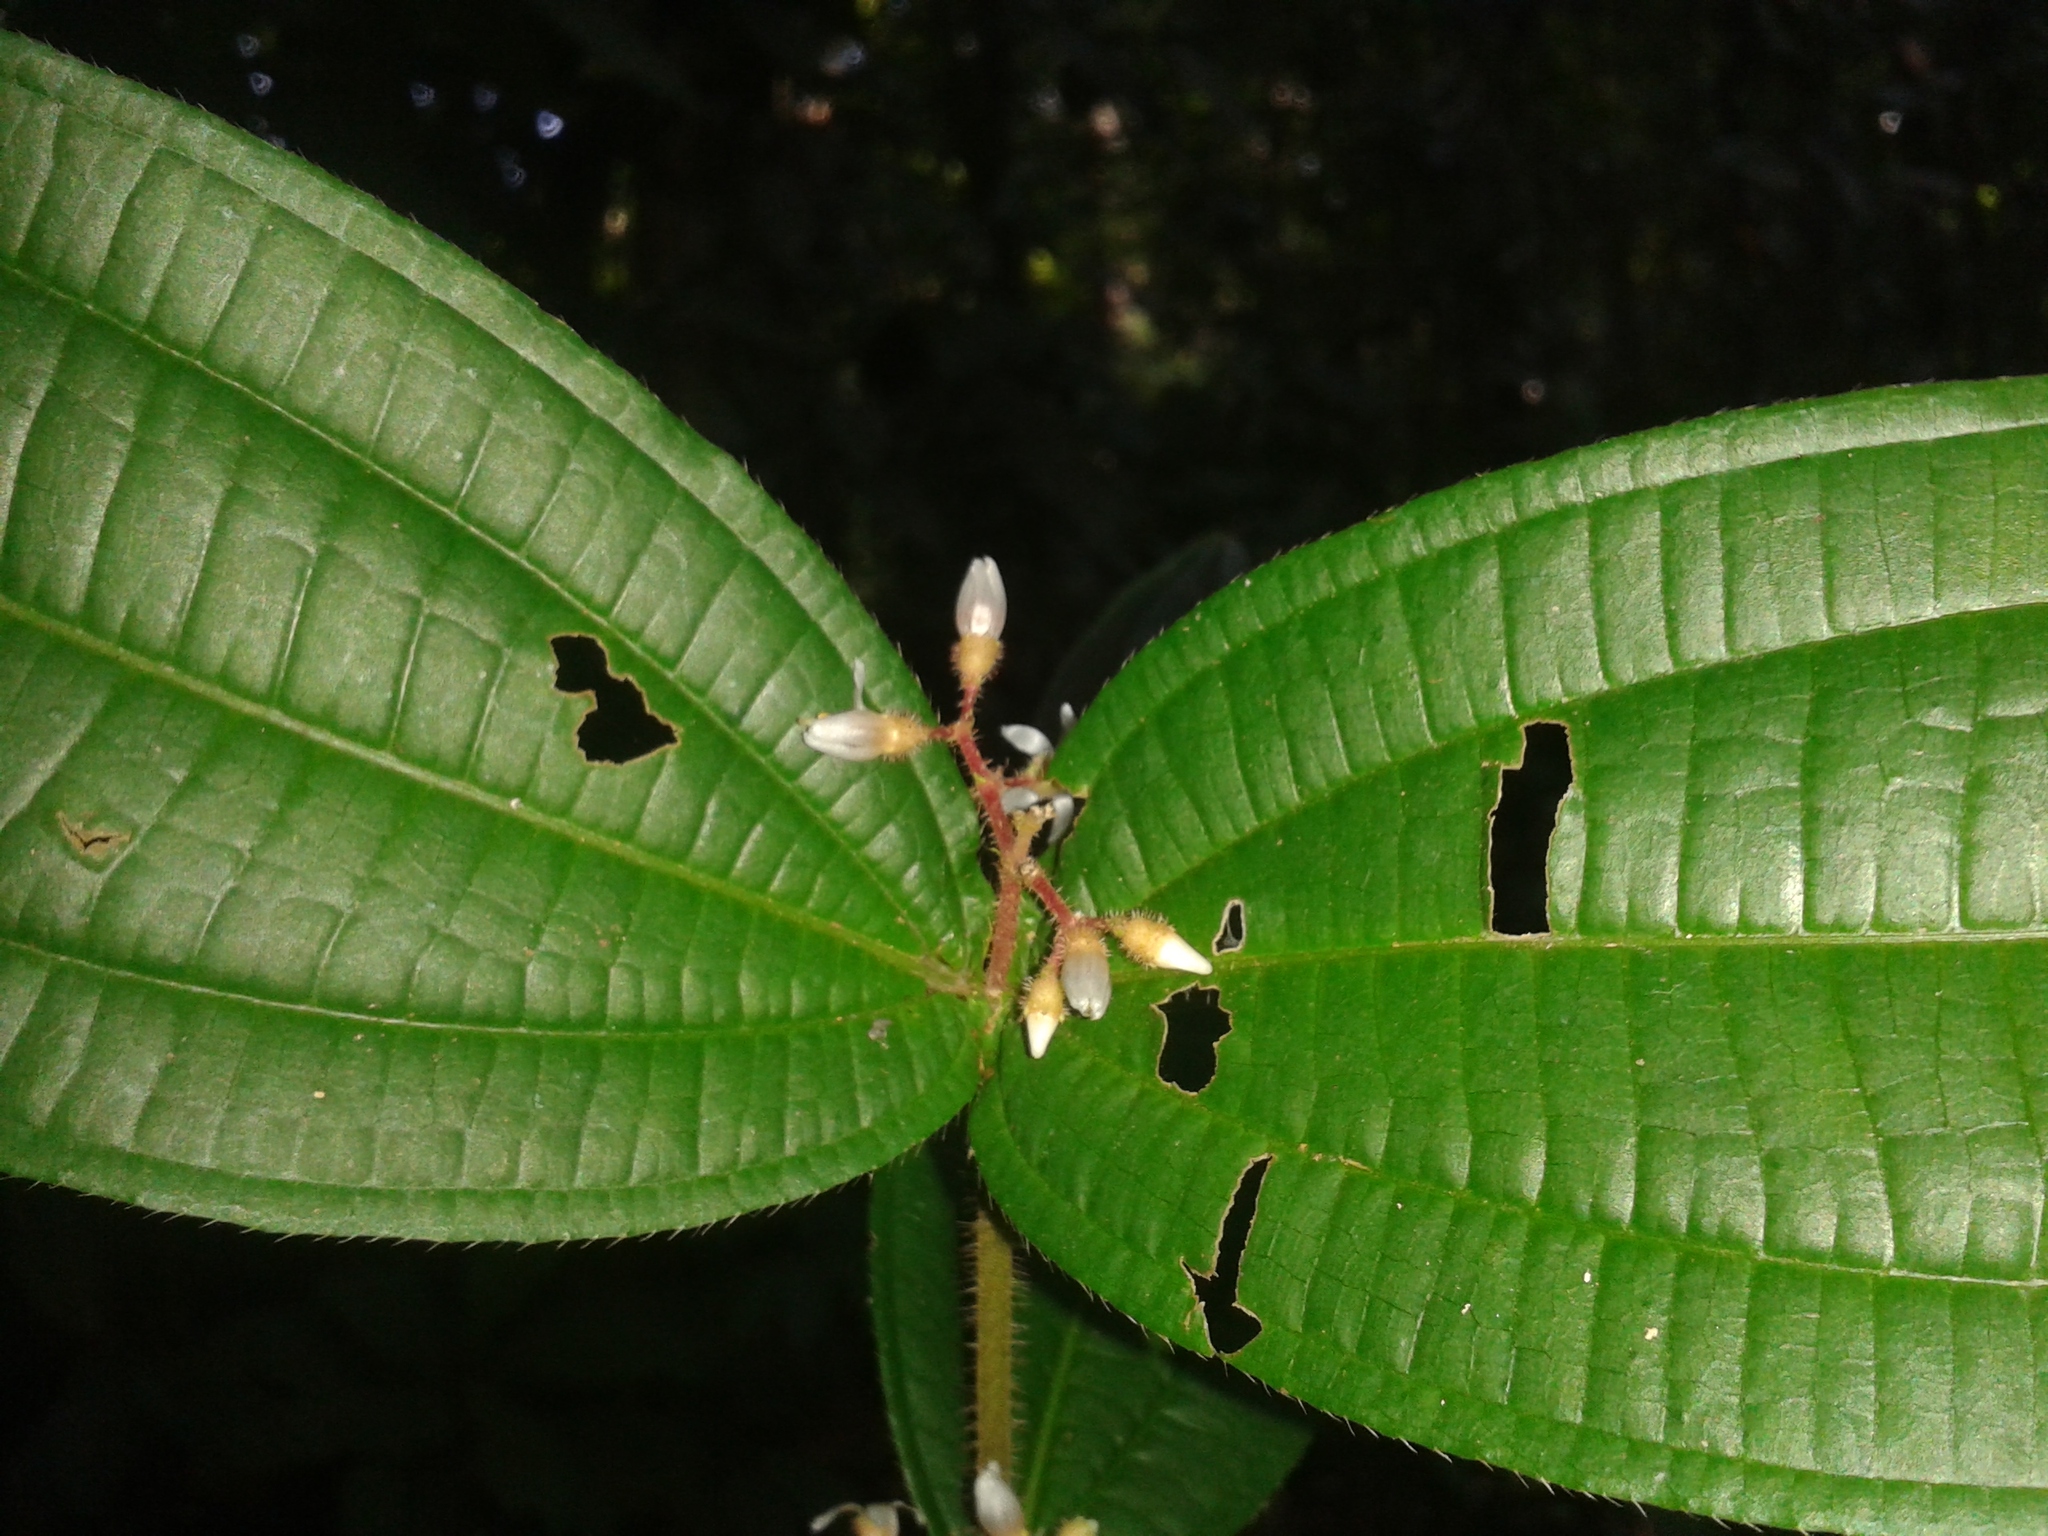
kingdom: Plantae
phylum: Tracheophyta
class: Magnoliopsida
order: Myrtales
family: Melastomataceae
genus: Miconia
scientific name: Miconia allenii
